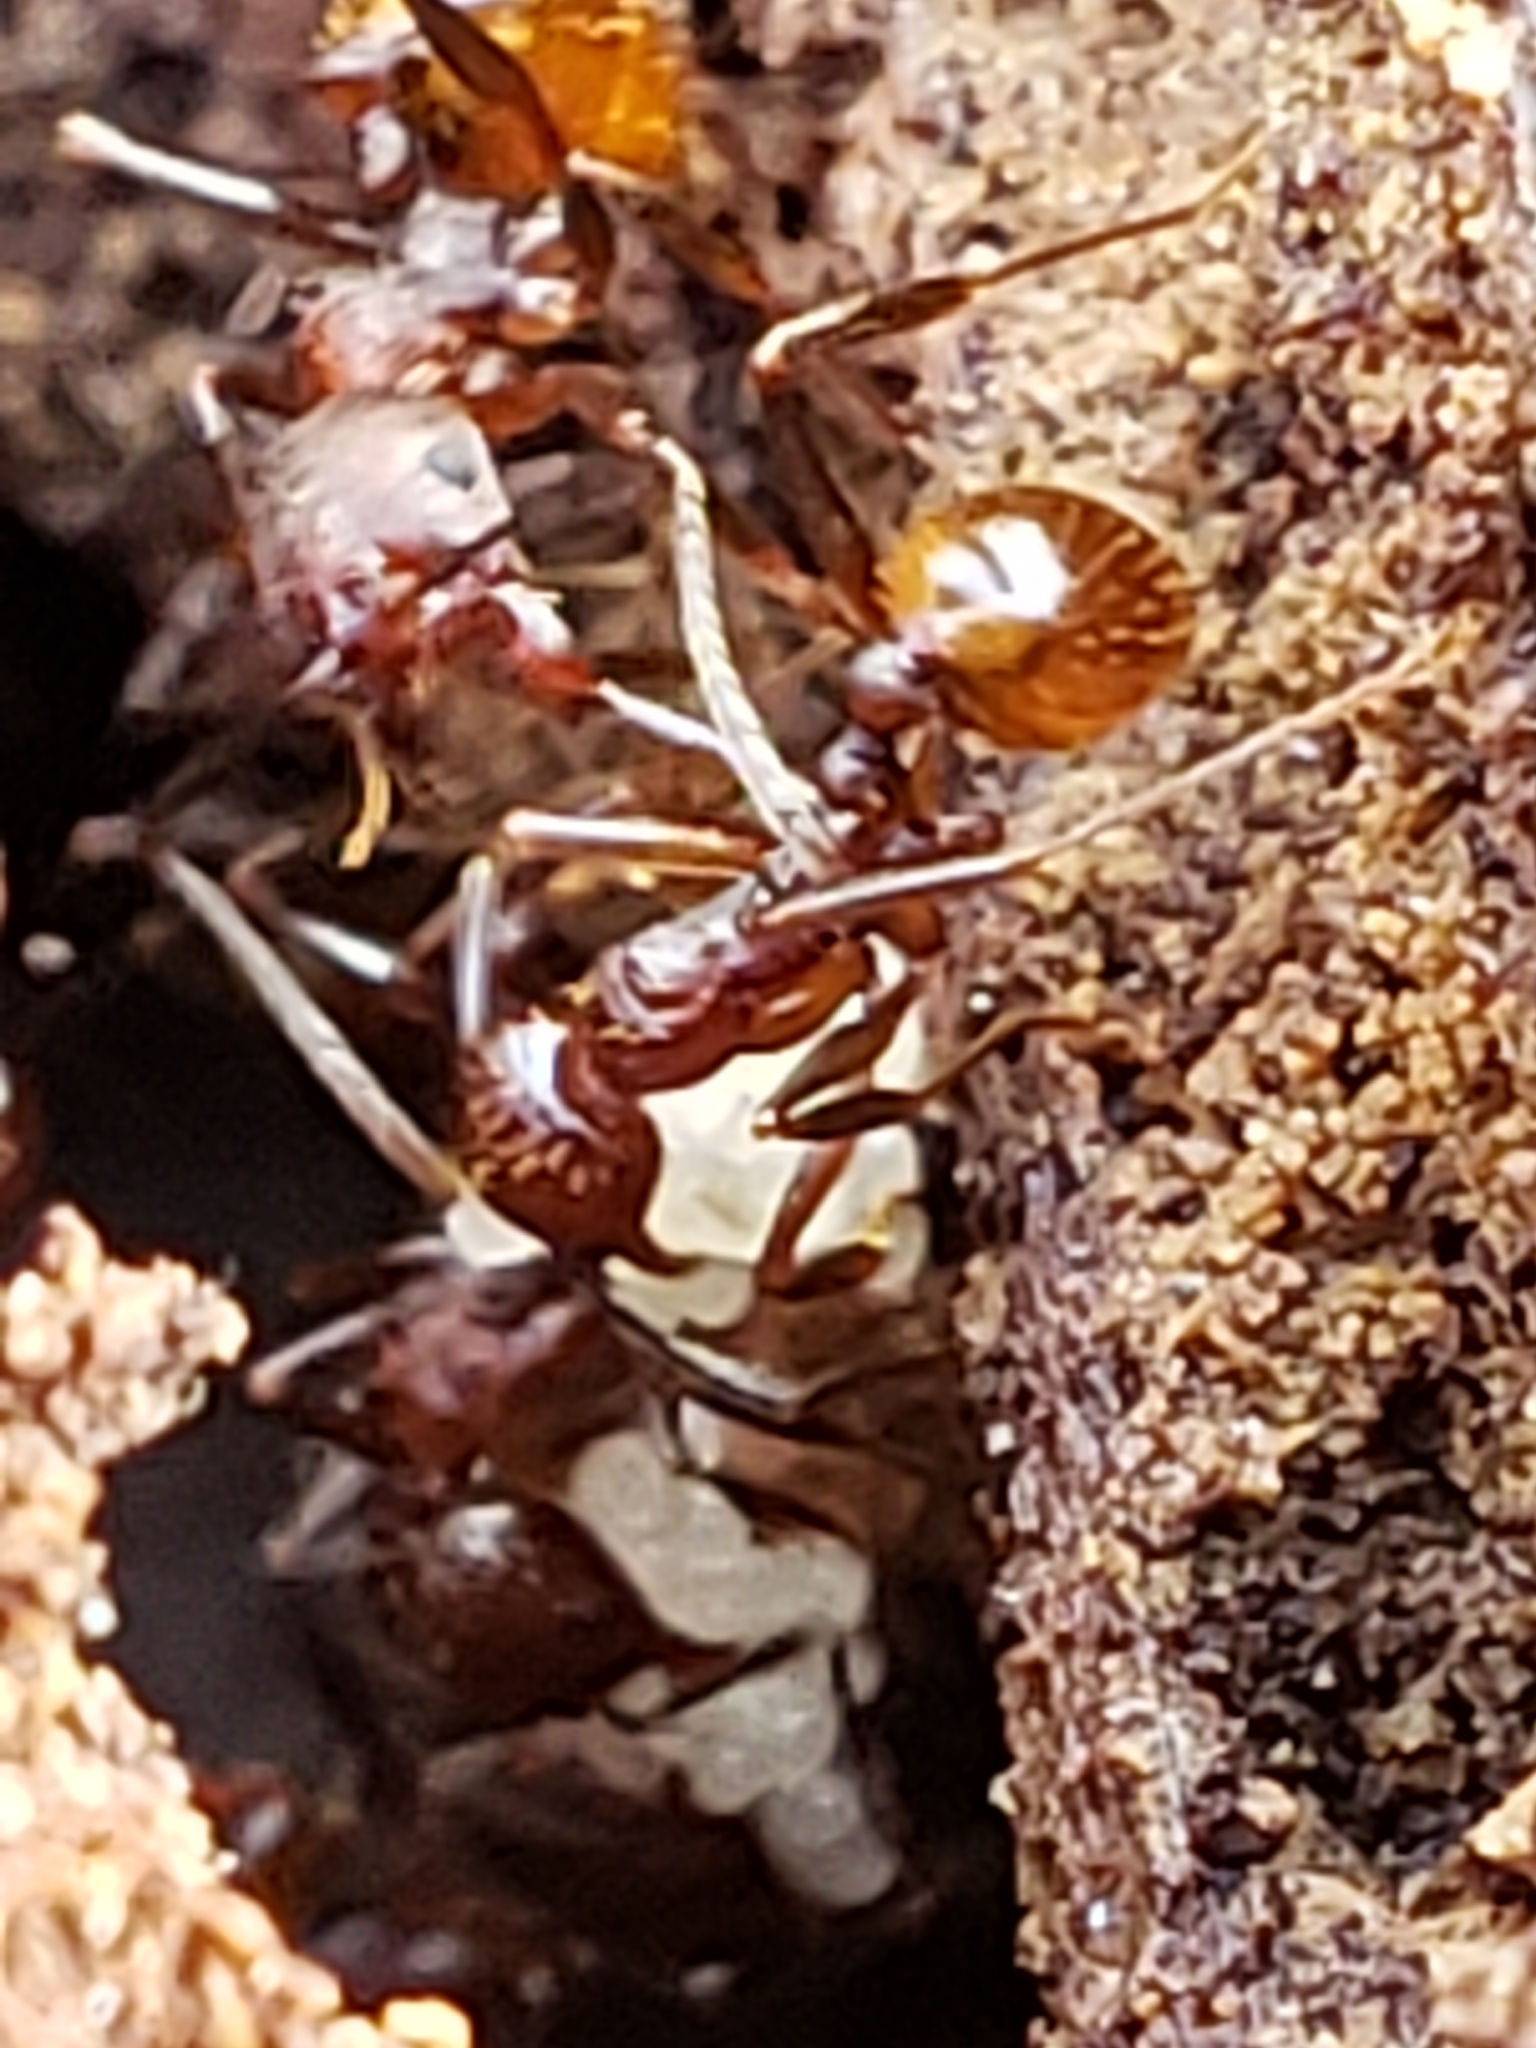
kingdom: Animalia
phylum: Arthropoda
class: Insecta
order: Hymenoptera
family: Formicidae
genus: Aphaenogaster
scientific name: Aphaenogaster fulva
